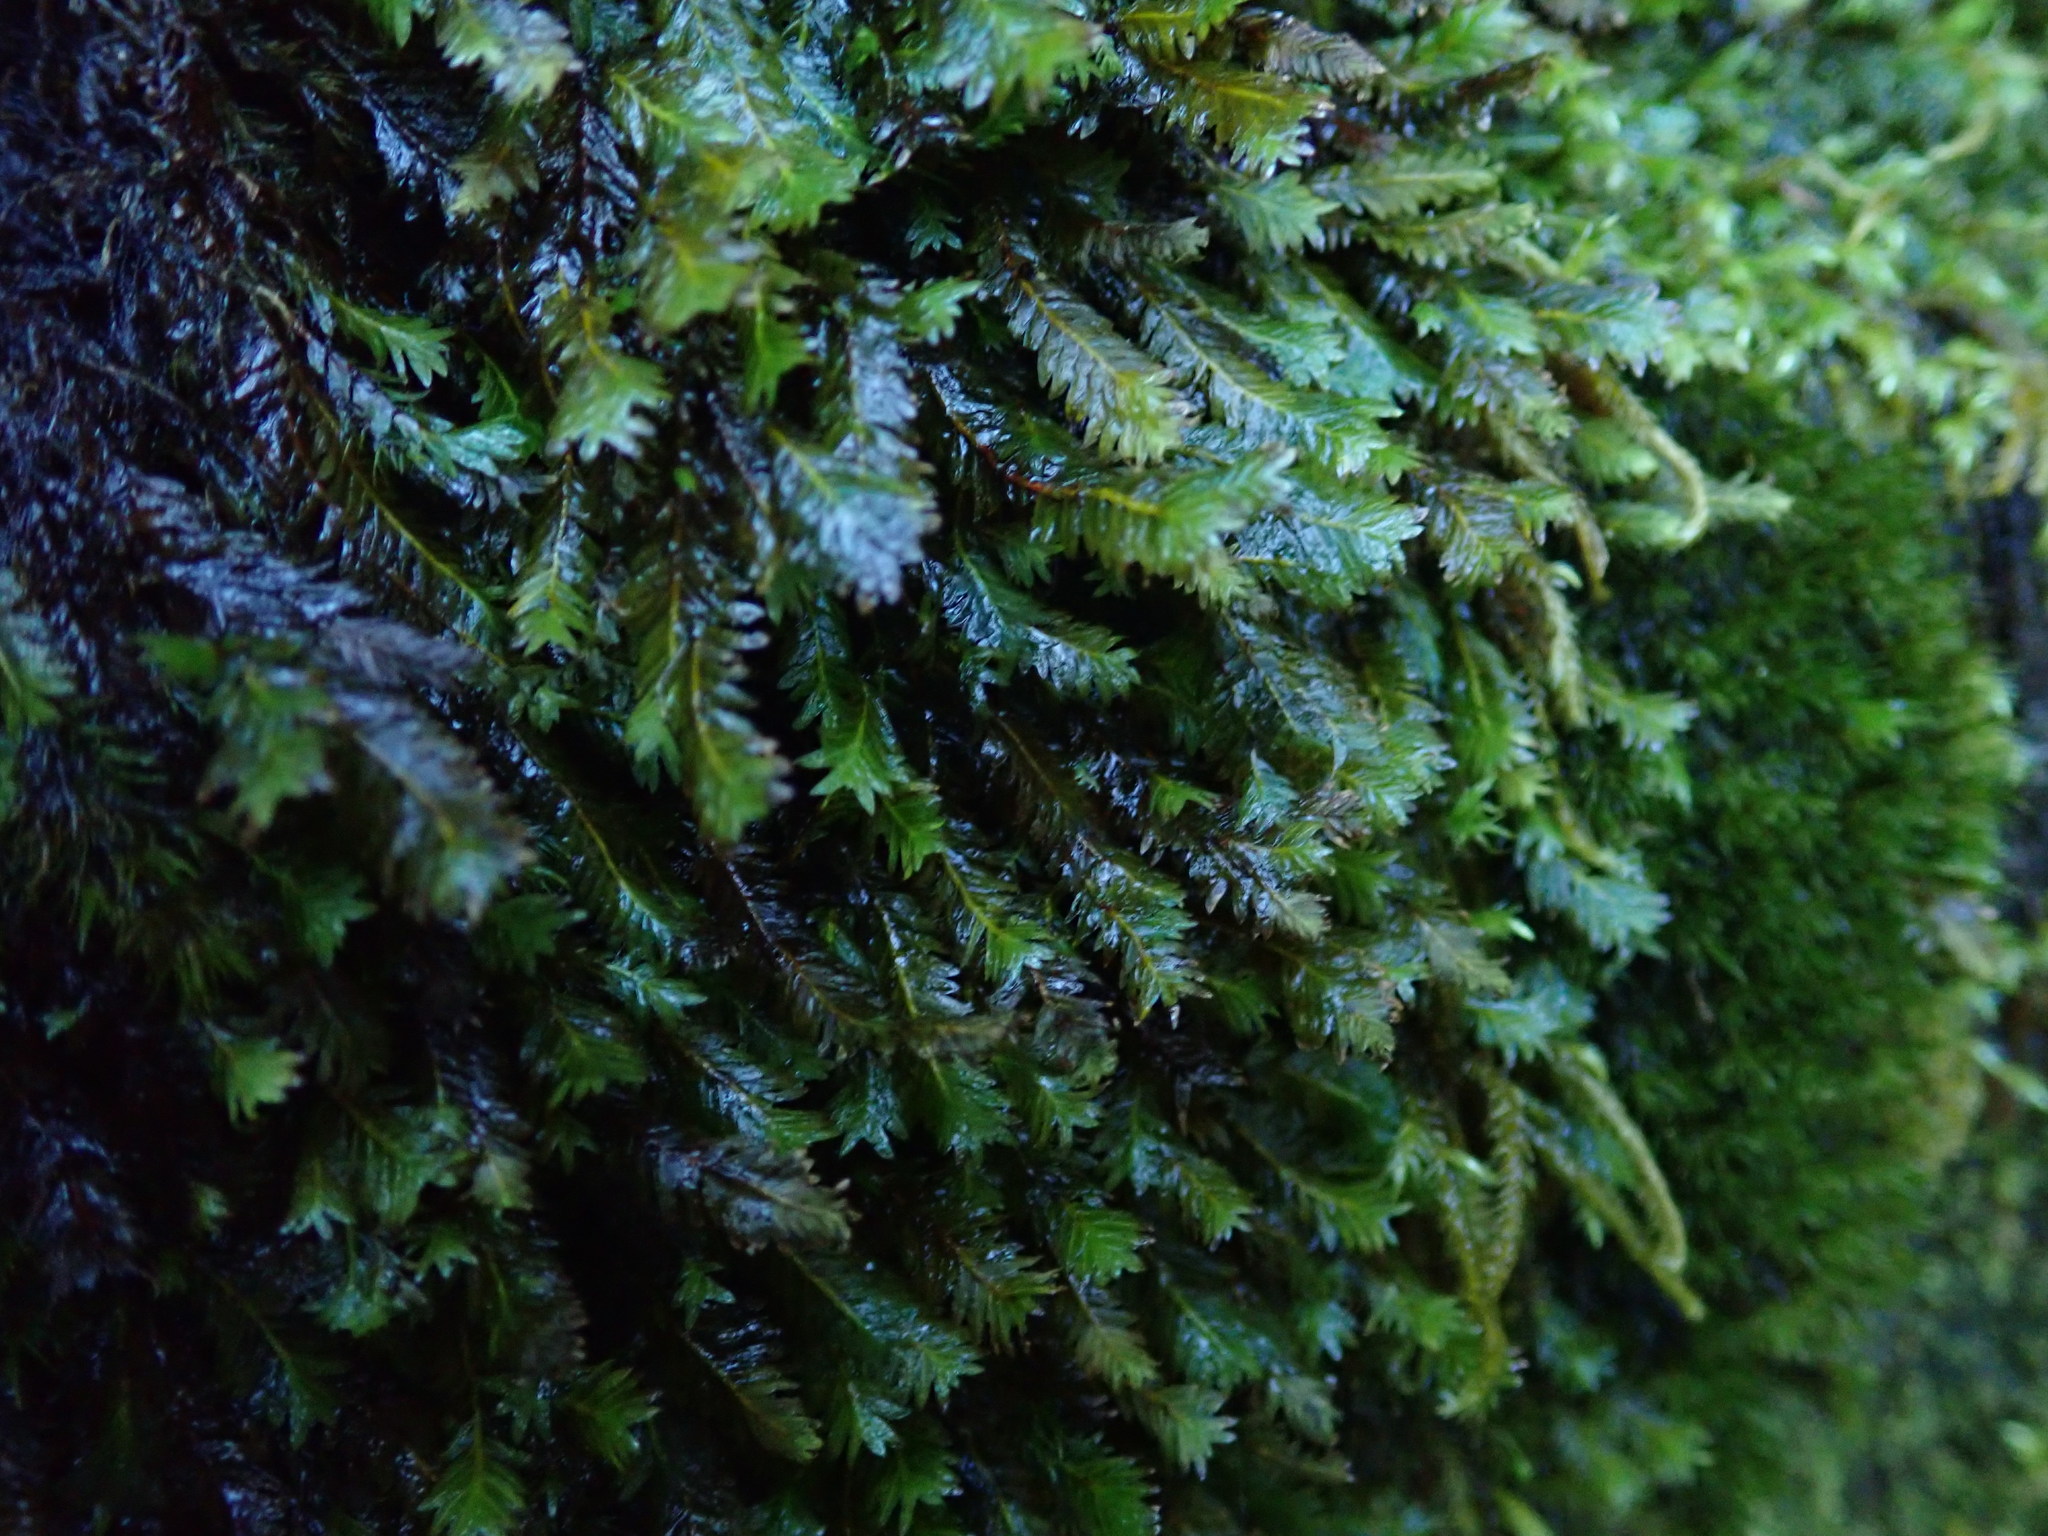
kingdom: Plantae
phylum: Bryophyta
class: Bryopsida
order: Dicranales
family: Fissidentaceae
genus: Fissidens
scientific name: Fissidens adianthoides
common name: Maidenhair pocket moss
